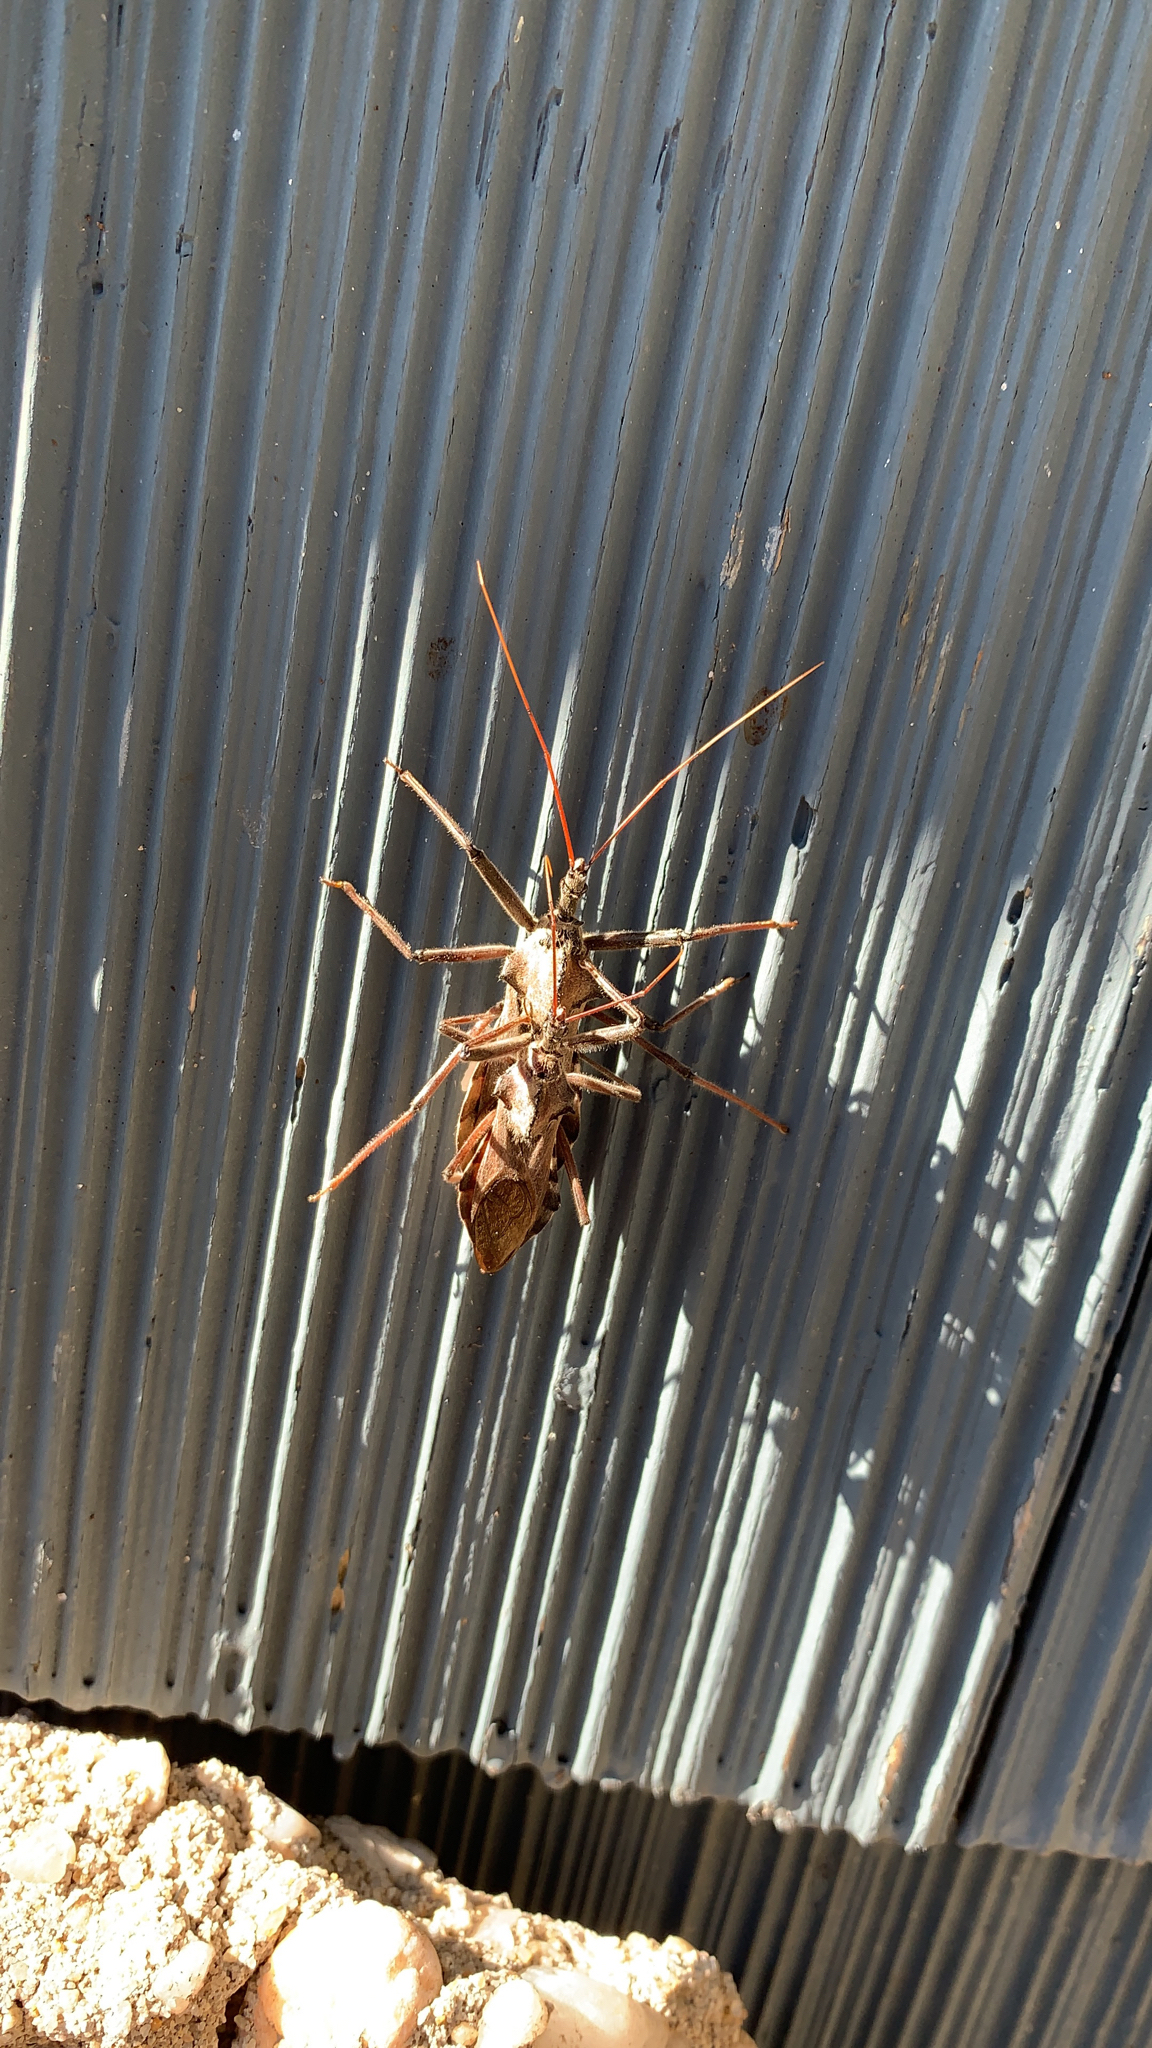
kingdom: Animalia
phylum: Arthropoda
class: Insecta
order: Hemiptera
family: Reduviidae
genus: Arilus
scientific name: Arilus cristatus
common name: North american wheel bug
